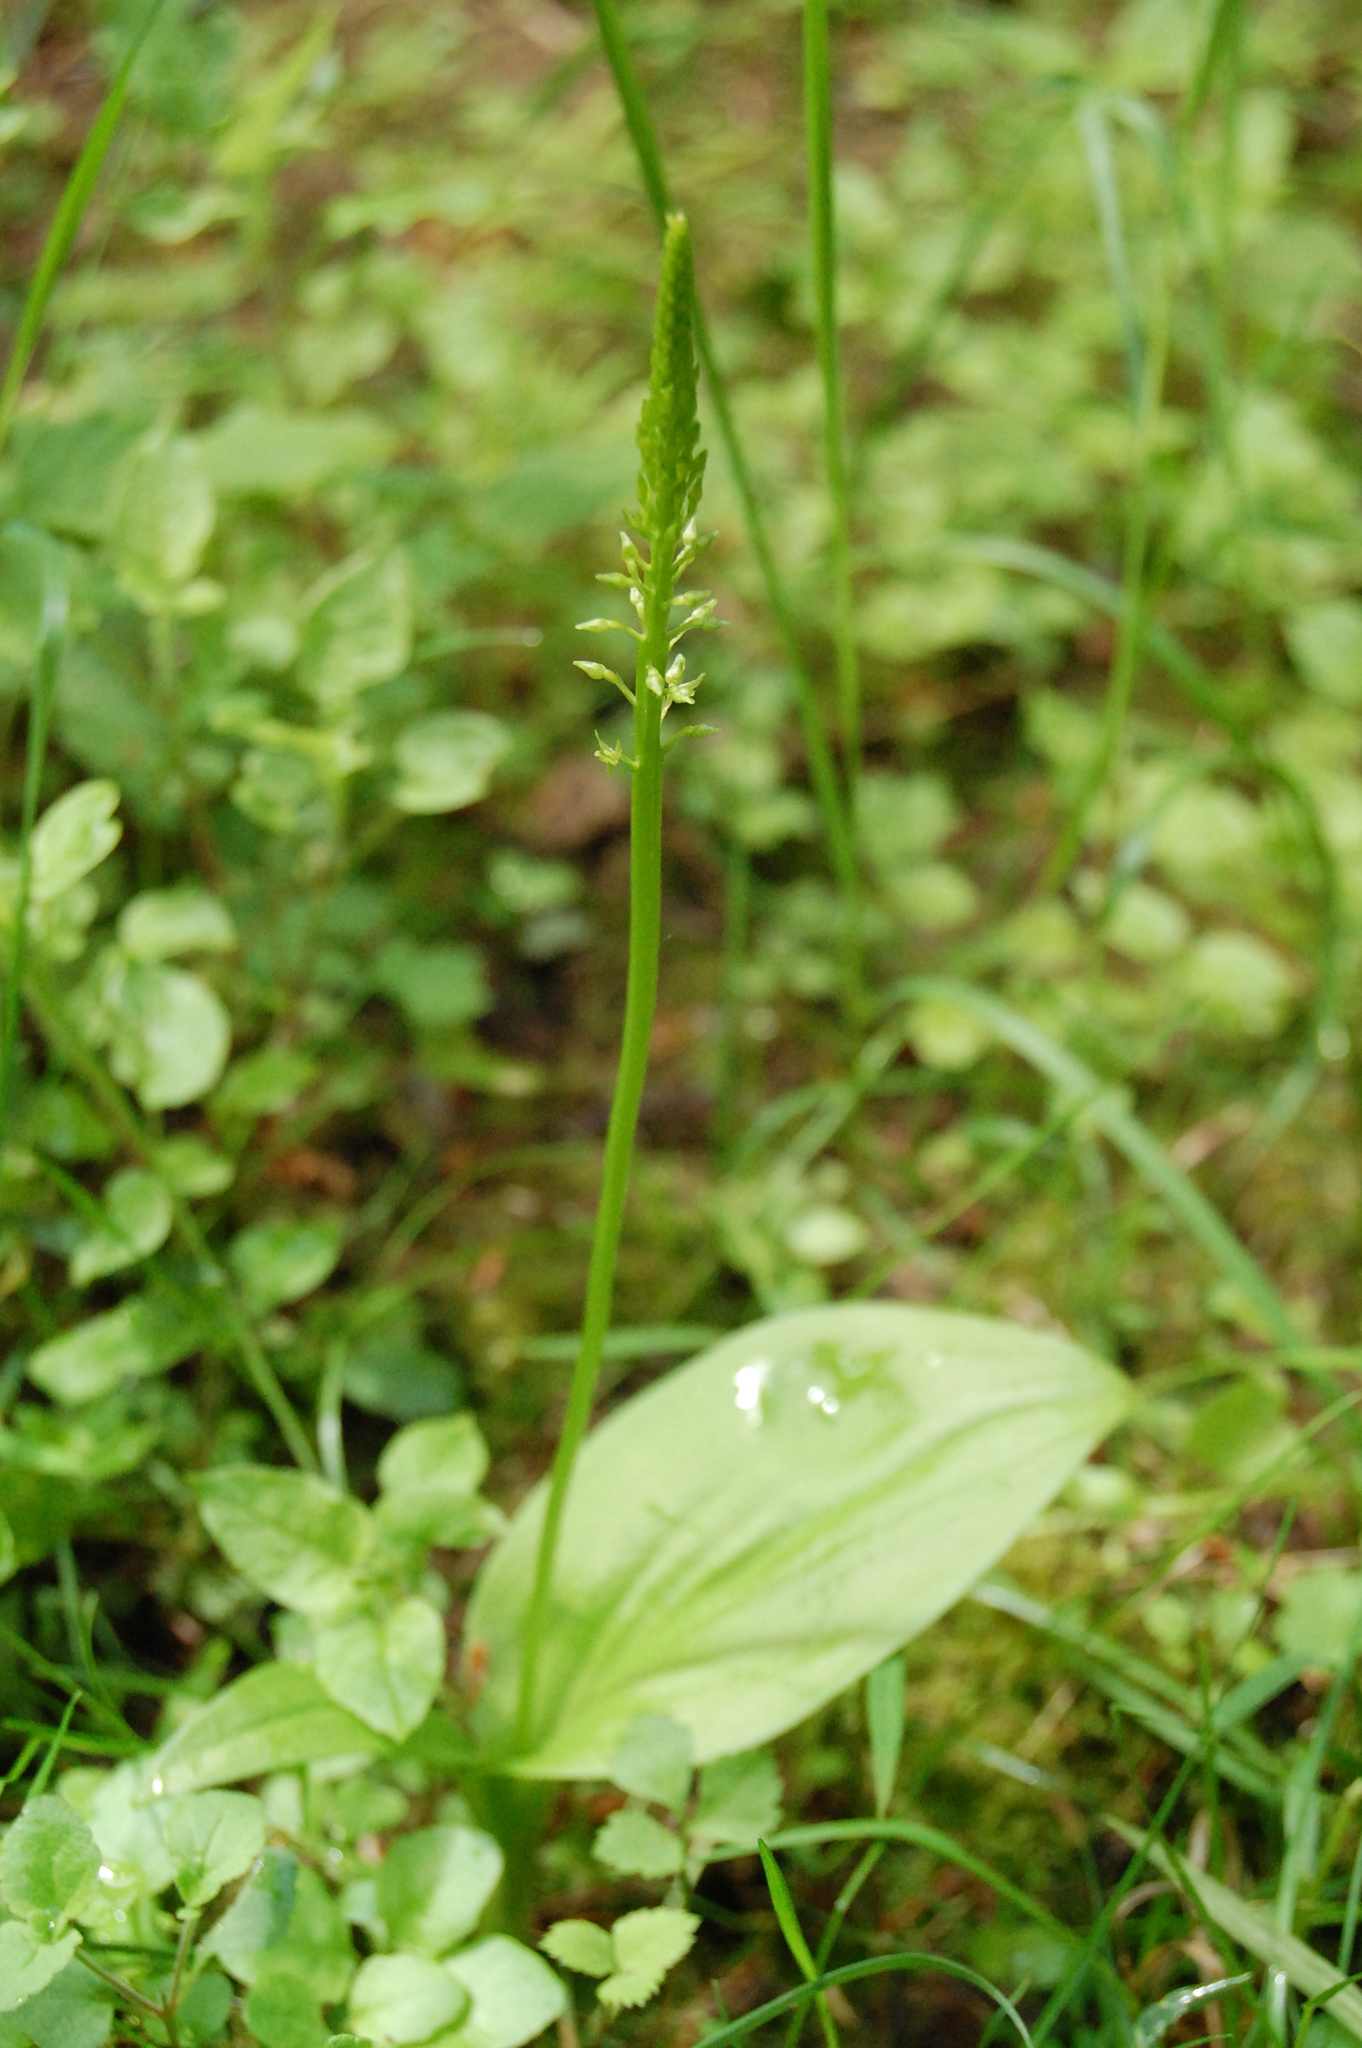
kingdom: Plantae
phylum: Tracheophyta
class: Liliopsida
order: Asparagales
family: Orchidaceae
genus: Malaxis
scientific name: Malaxis monophyllos
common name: White adder's-mouth
